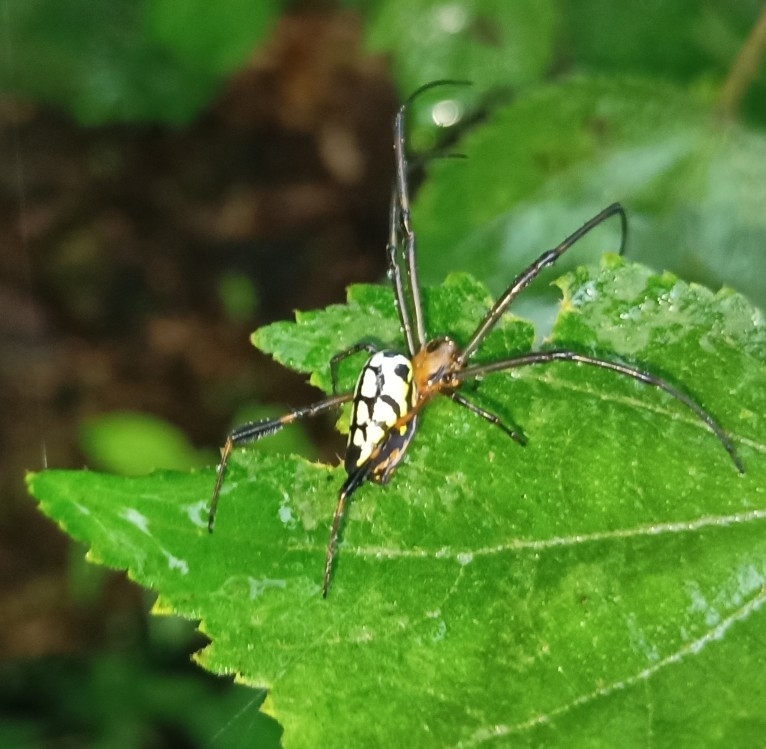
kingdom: Animalia
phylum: Arthropoda
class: Arachnida
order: Araneae
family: Tetragnathidae
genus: Leucauge
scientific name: Leucauge tessellata
